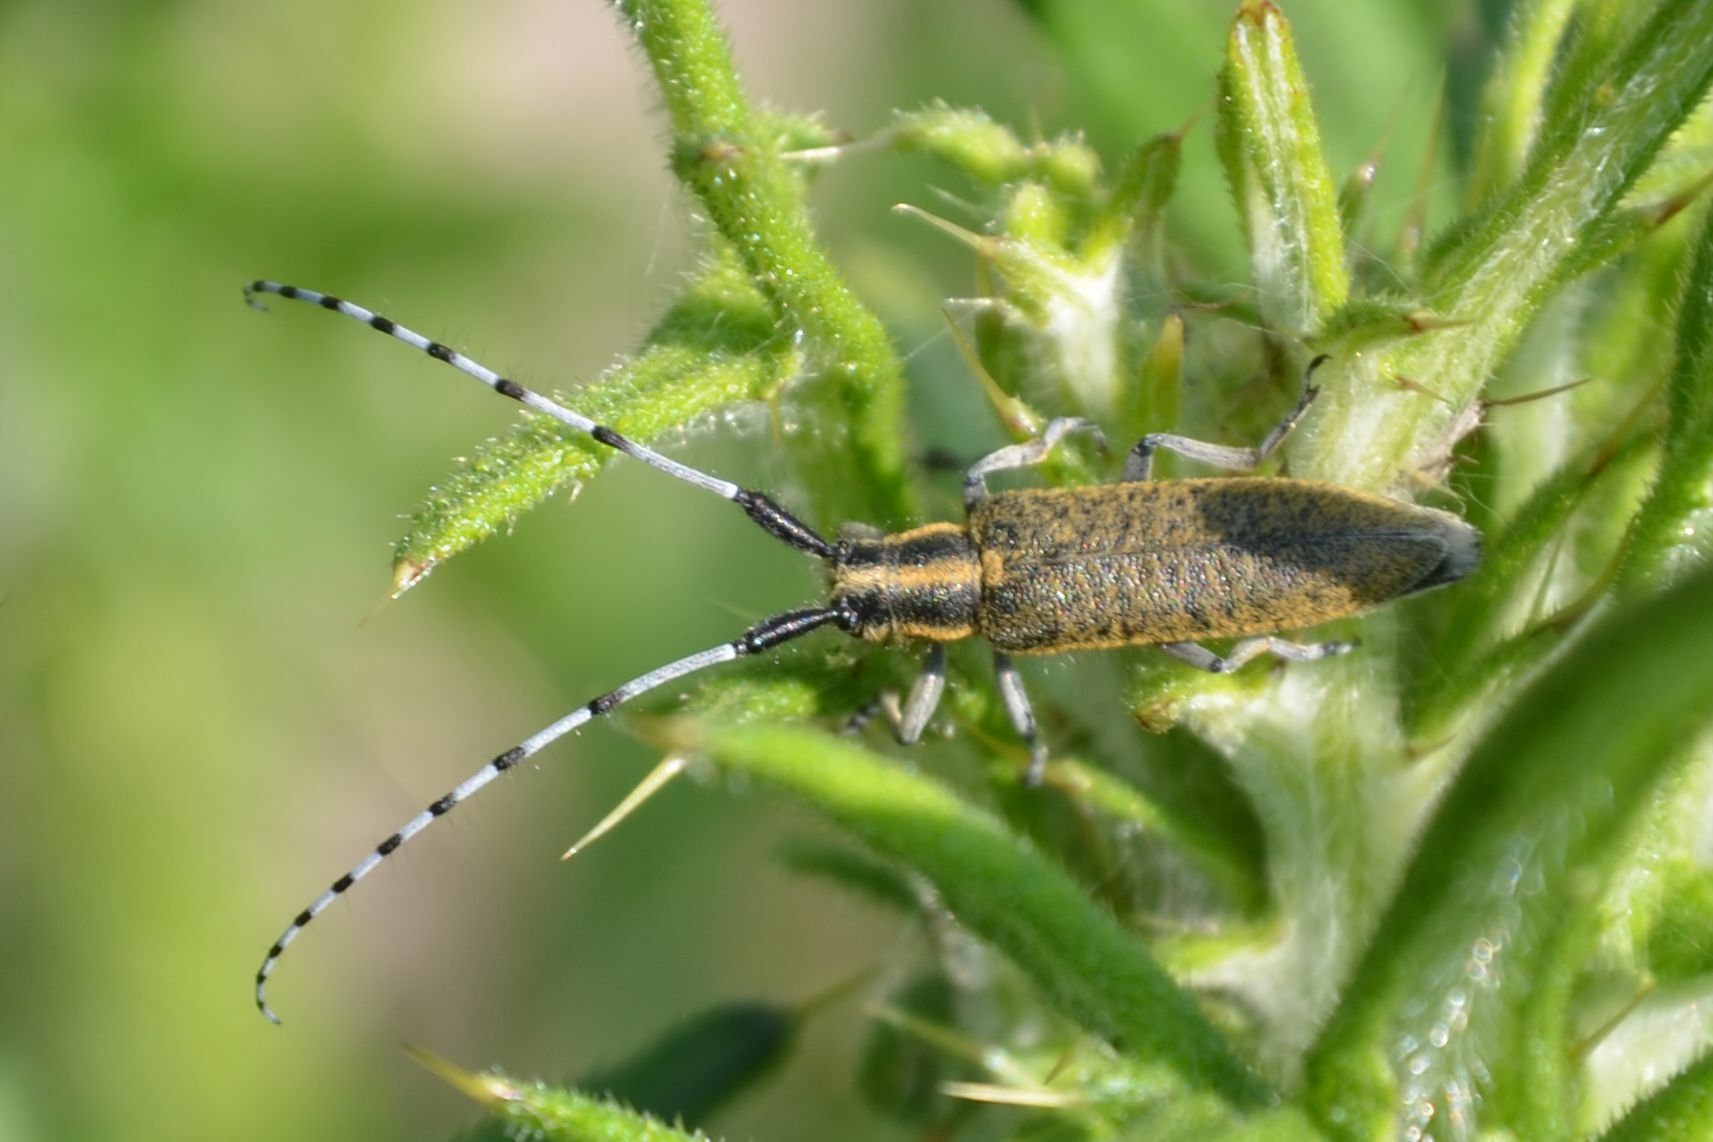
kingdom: Animalia
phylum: Arthropoda
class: Insecta
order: Coleoptera
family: Cerambycidae
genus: Agapanthia
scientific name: Agapanthia villosoviridescens
